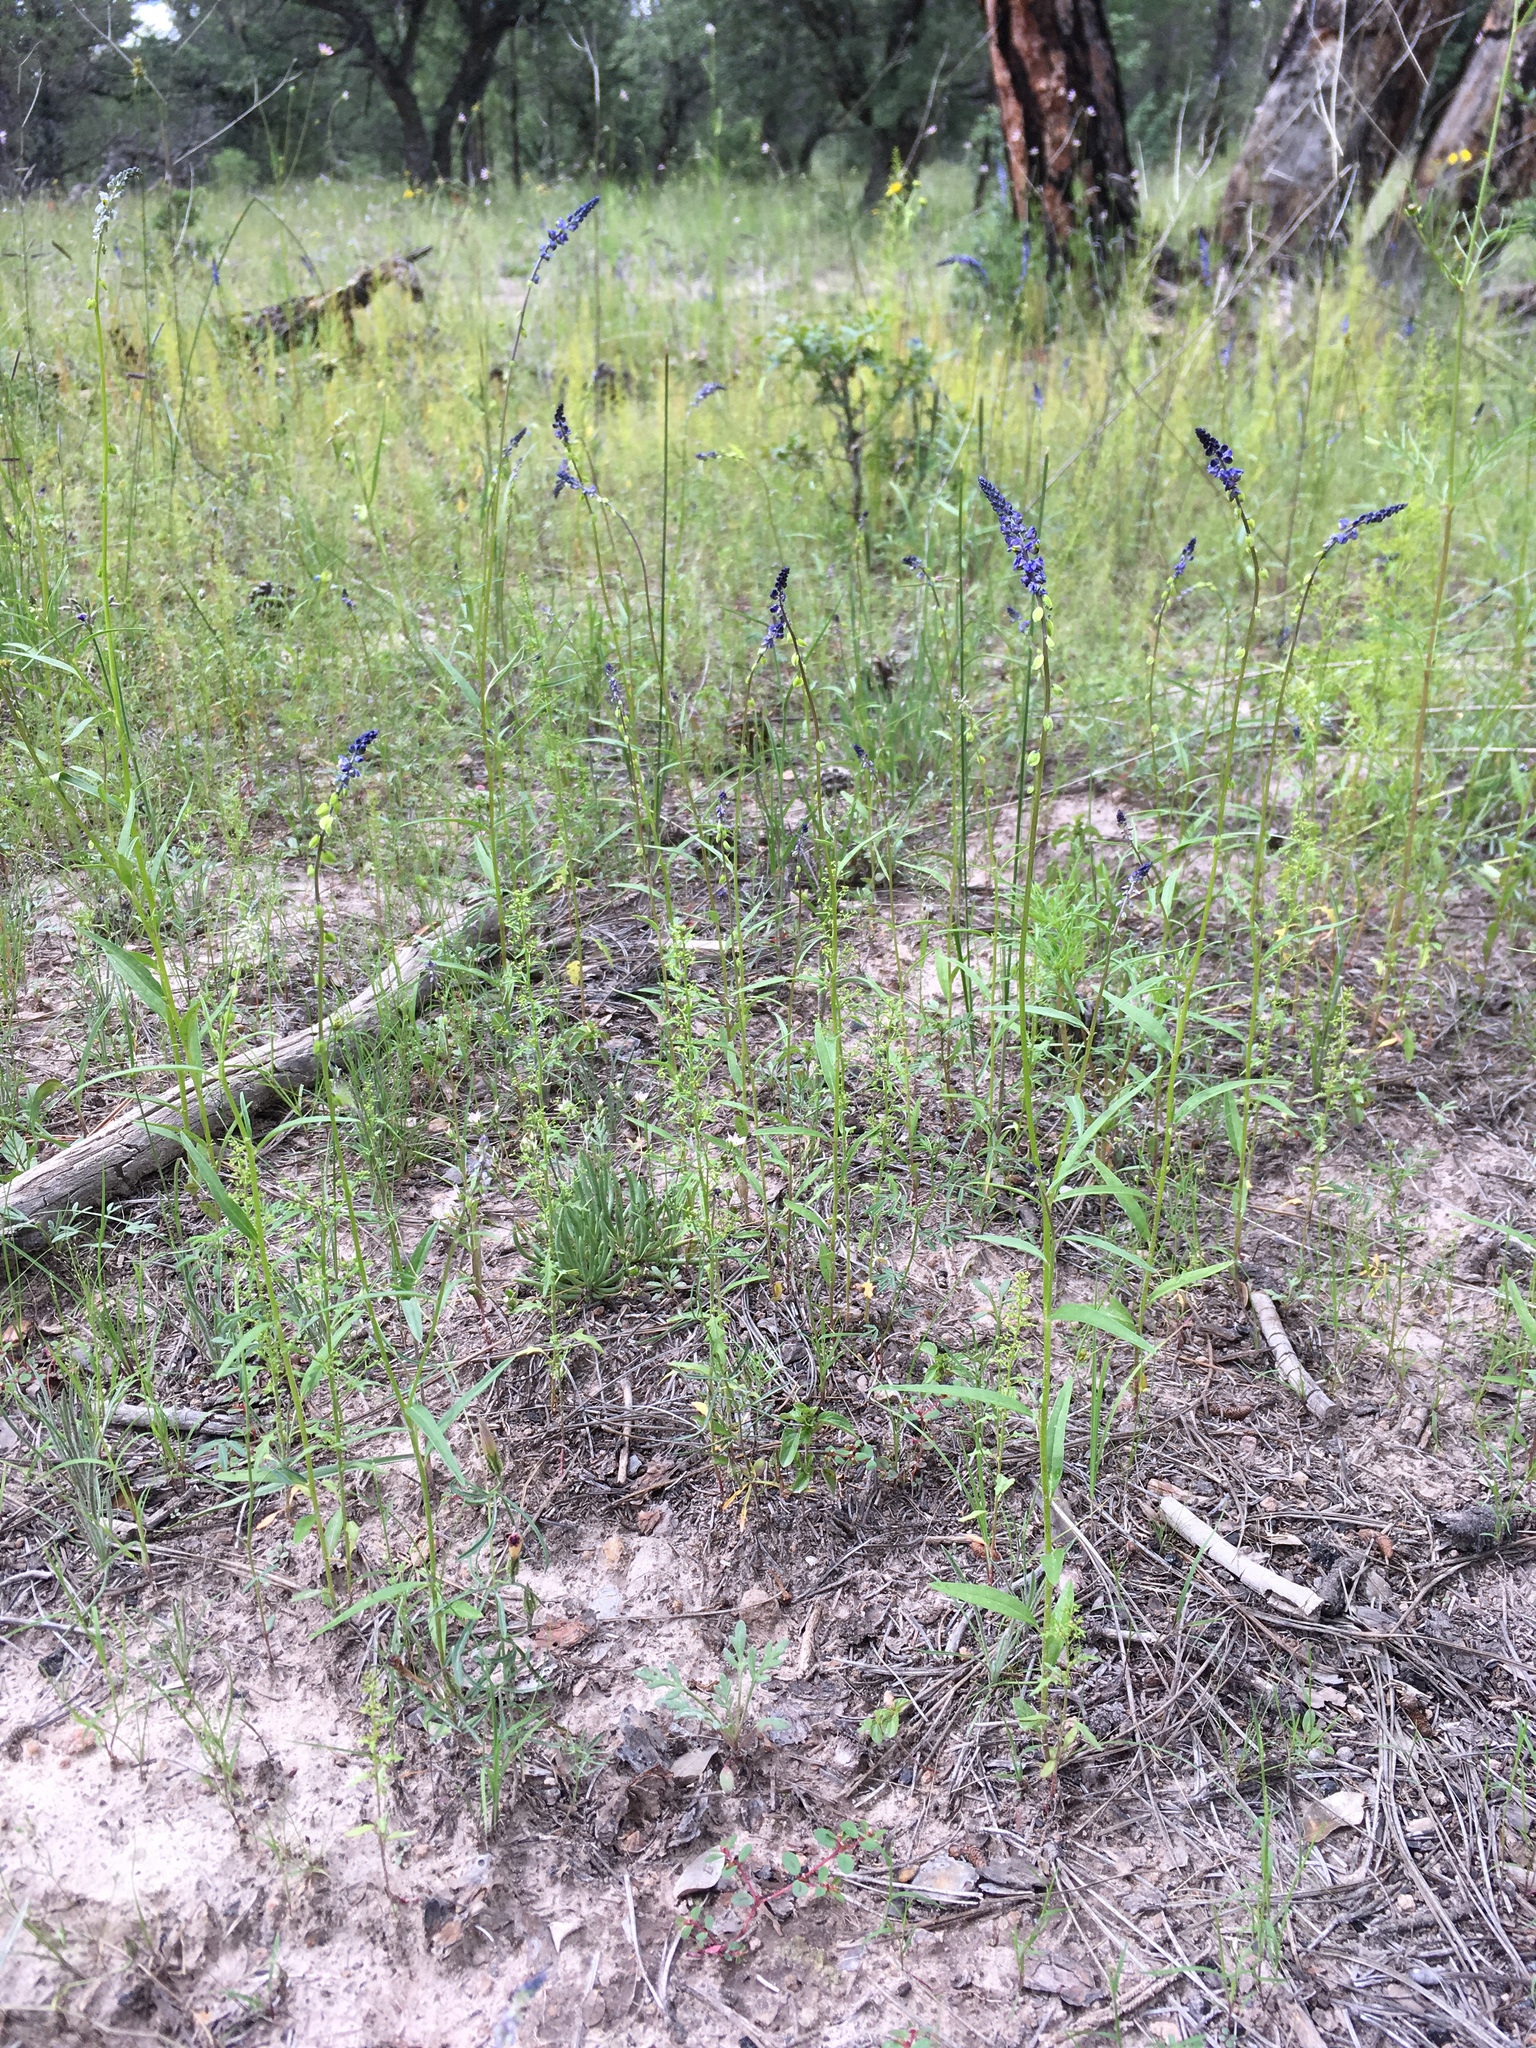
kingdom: Plantae
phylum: Tracheophyta
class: Magnoliopsida
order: Fabales
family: Polygalaceae
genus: Monnina
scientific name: Monnina wrightii
